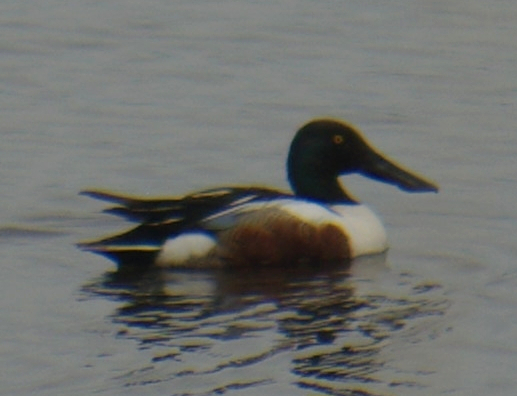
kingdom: Animalia
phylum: Chordata
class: Aves
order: Anseriformes
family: Anatidae
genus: Spatula
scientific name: Spatula clypeata
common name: Northern shoveler
